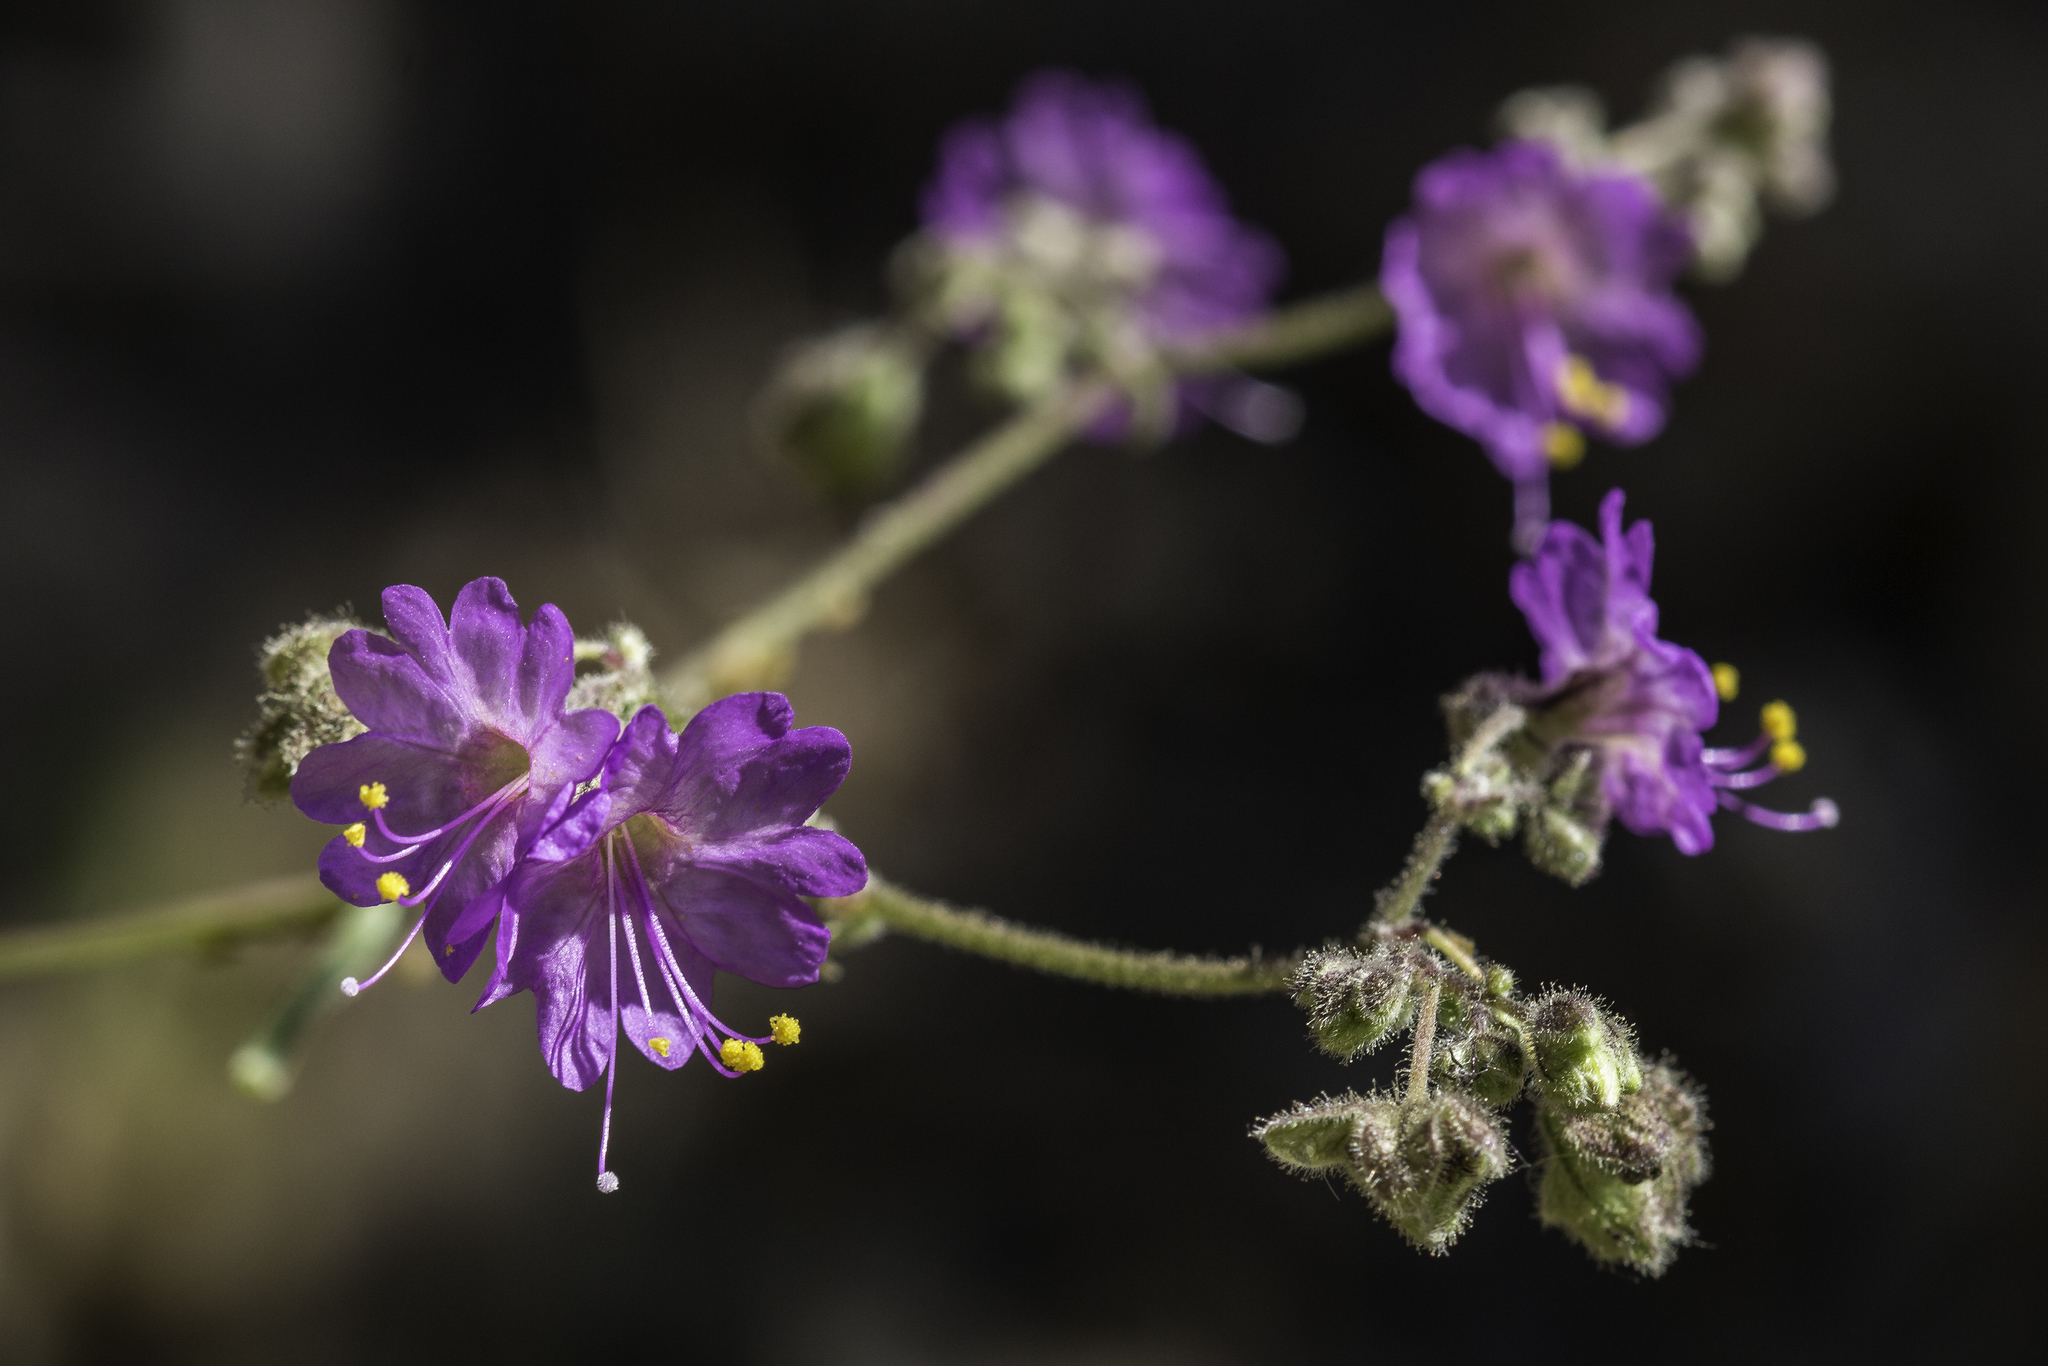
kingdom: Plantae
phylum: Tracheophyta
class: Magnoliopsida
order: Caryophyllales
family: Nyctaginaceae
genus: Mirabilis
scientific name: Mirabilis linearis
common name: Linear-leaved four-o'clock
